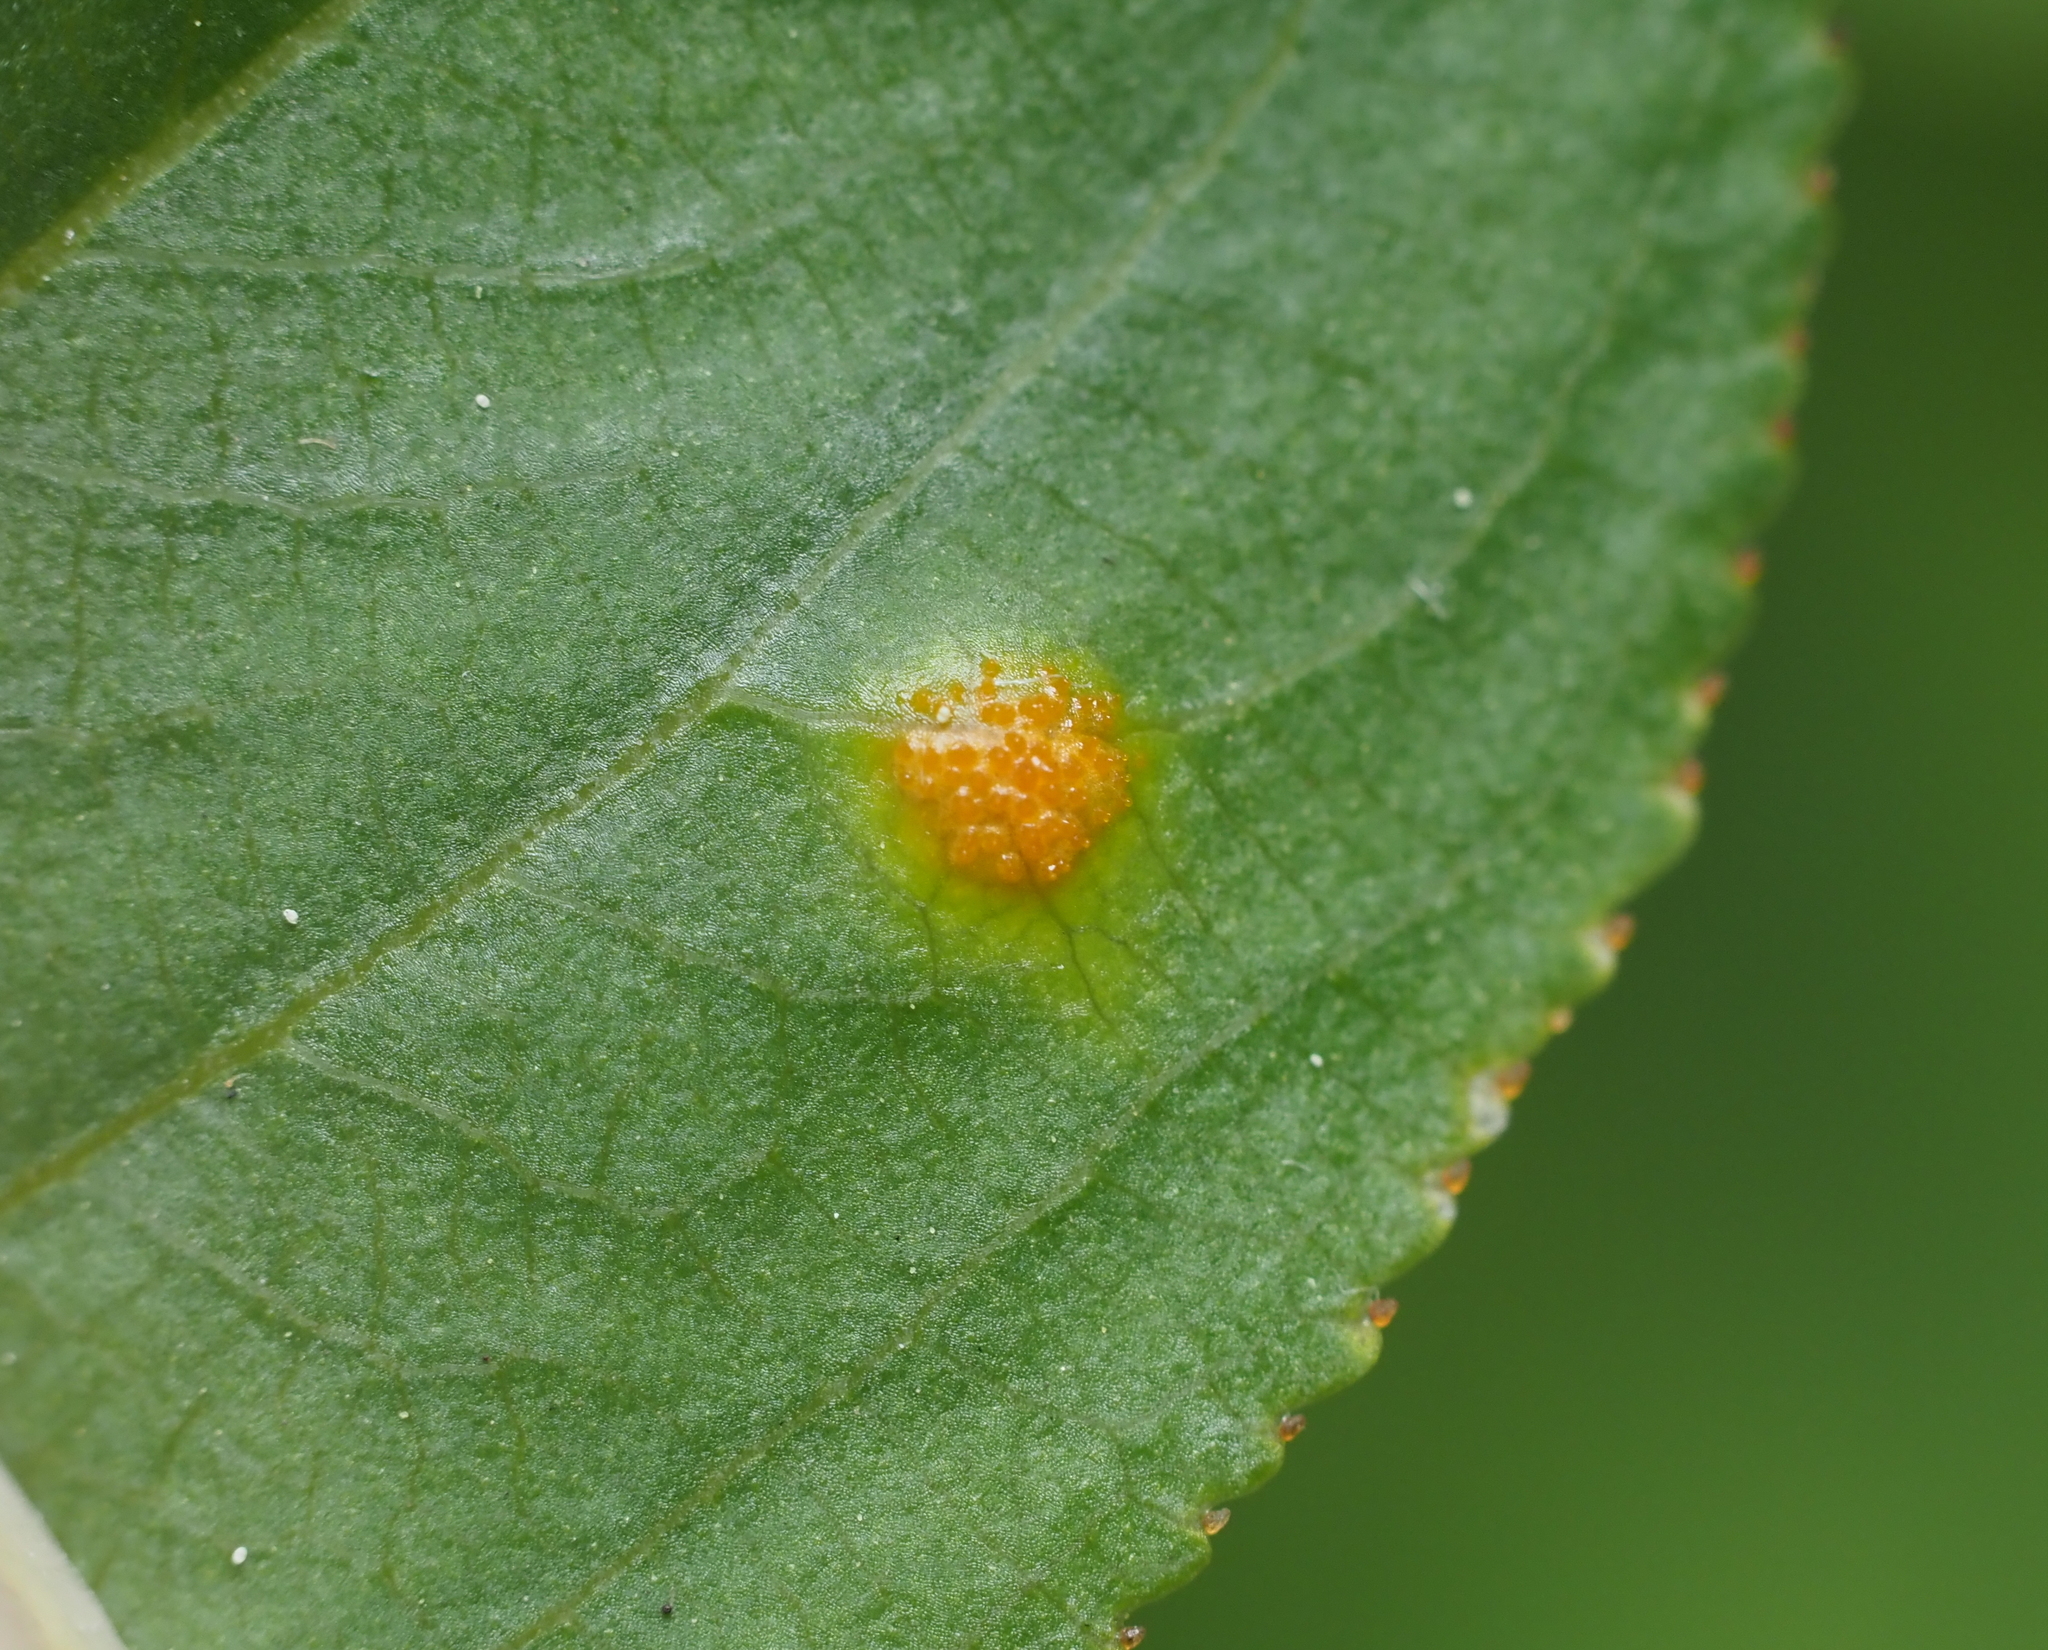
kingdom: Fungi
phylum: Basidiomycota
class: Pucciniomycetes
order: Pucciniales
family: Pucciniaceae
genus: Puccinia
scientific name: Puccinia coronata
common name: Crown rust
